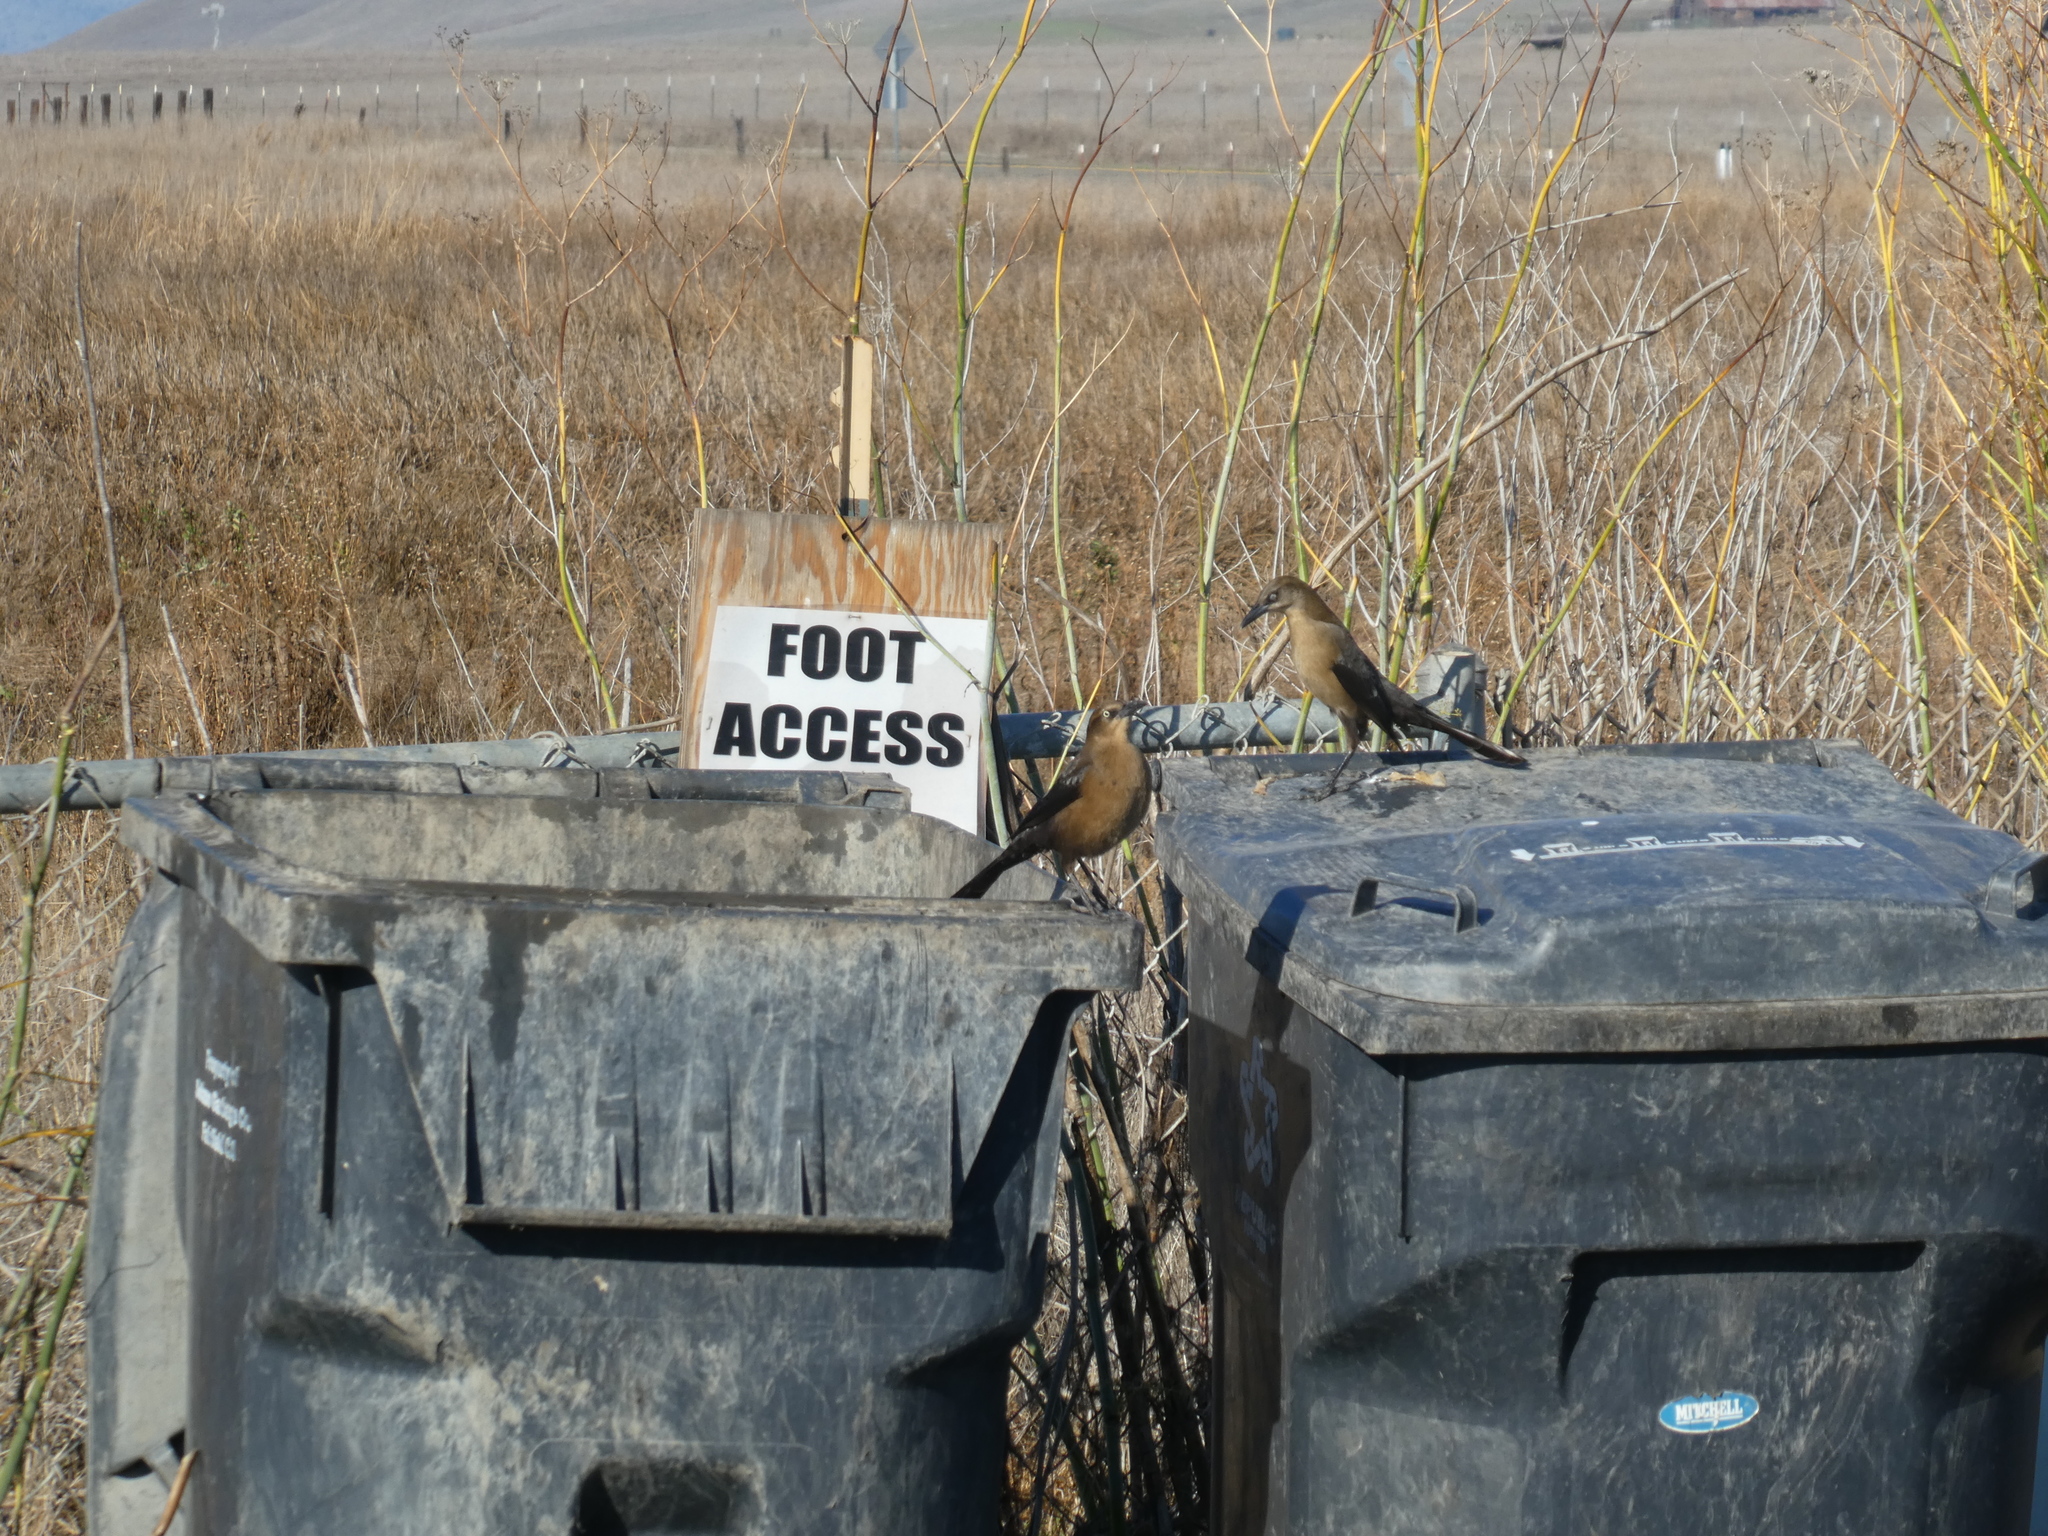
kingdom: Animalia
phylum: Chordata
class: Aves
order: Passeriformes
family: Icteridae
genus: Quiscalus
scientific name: Quiscalus mexicanus
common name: Great-tailed grackle
